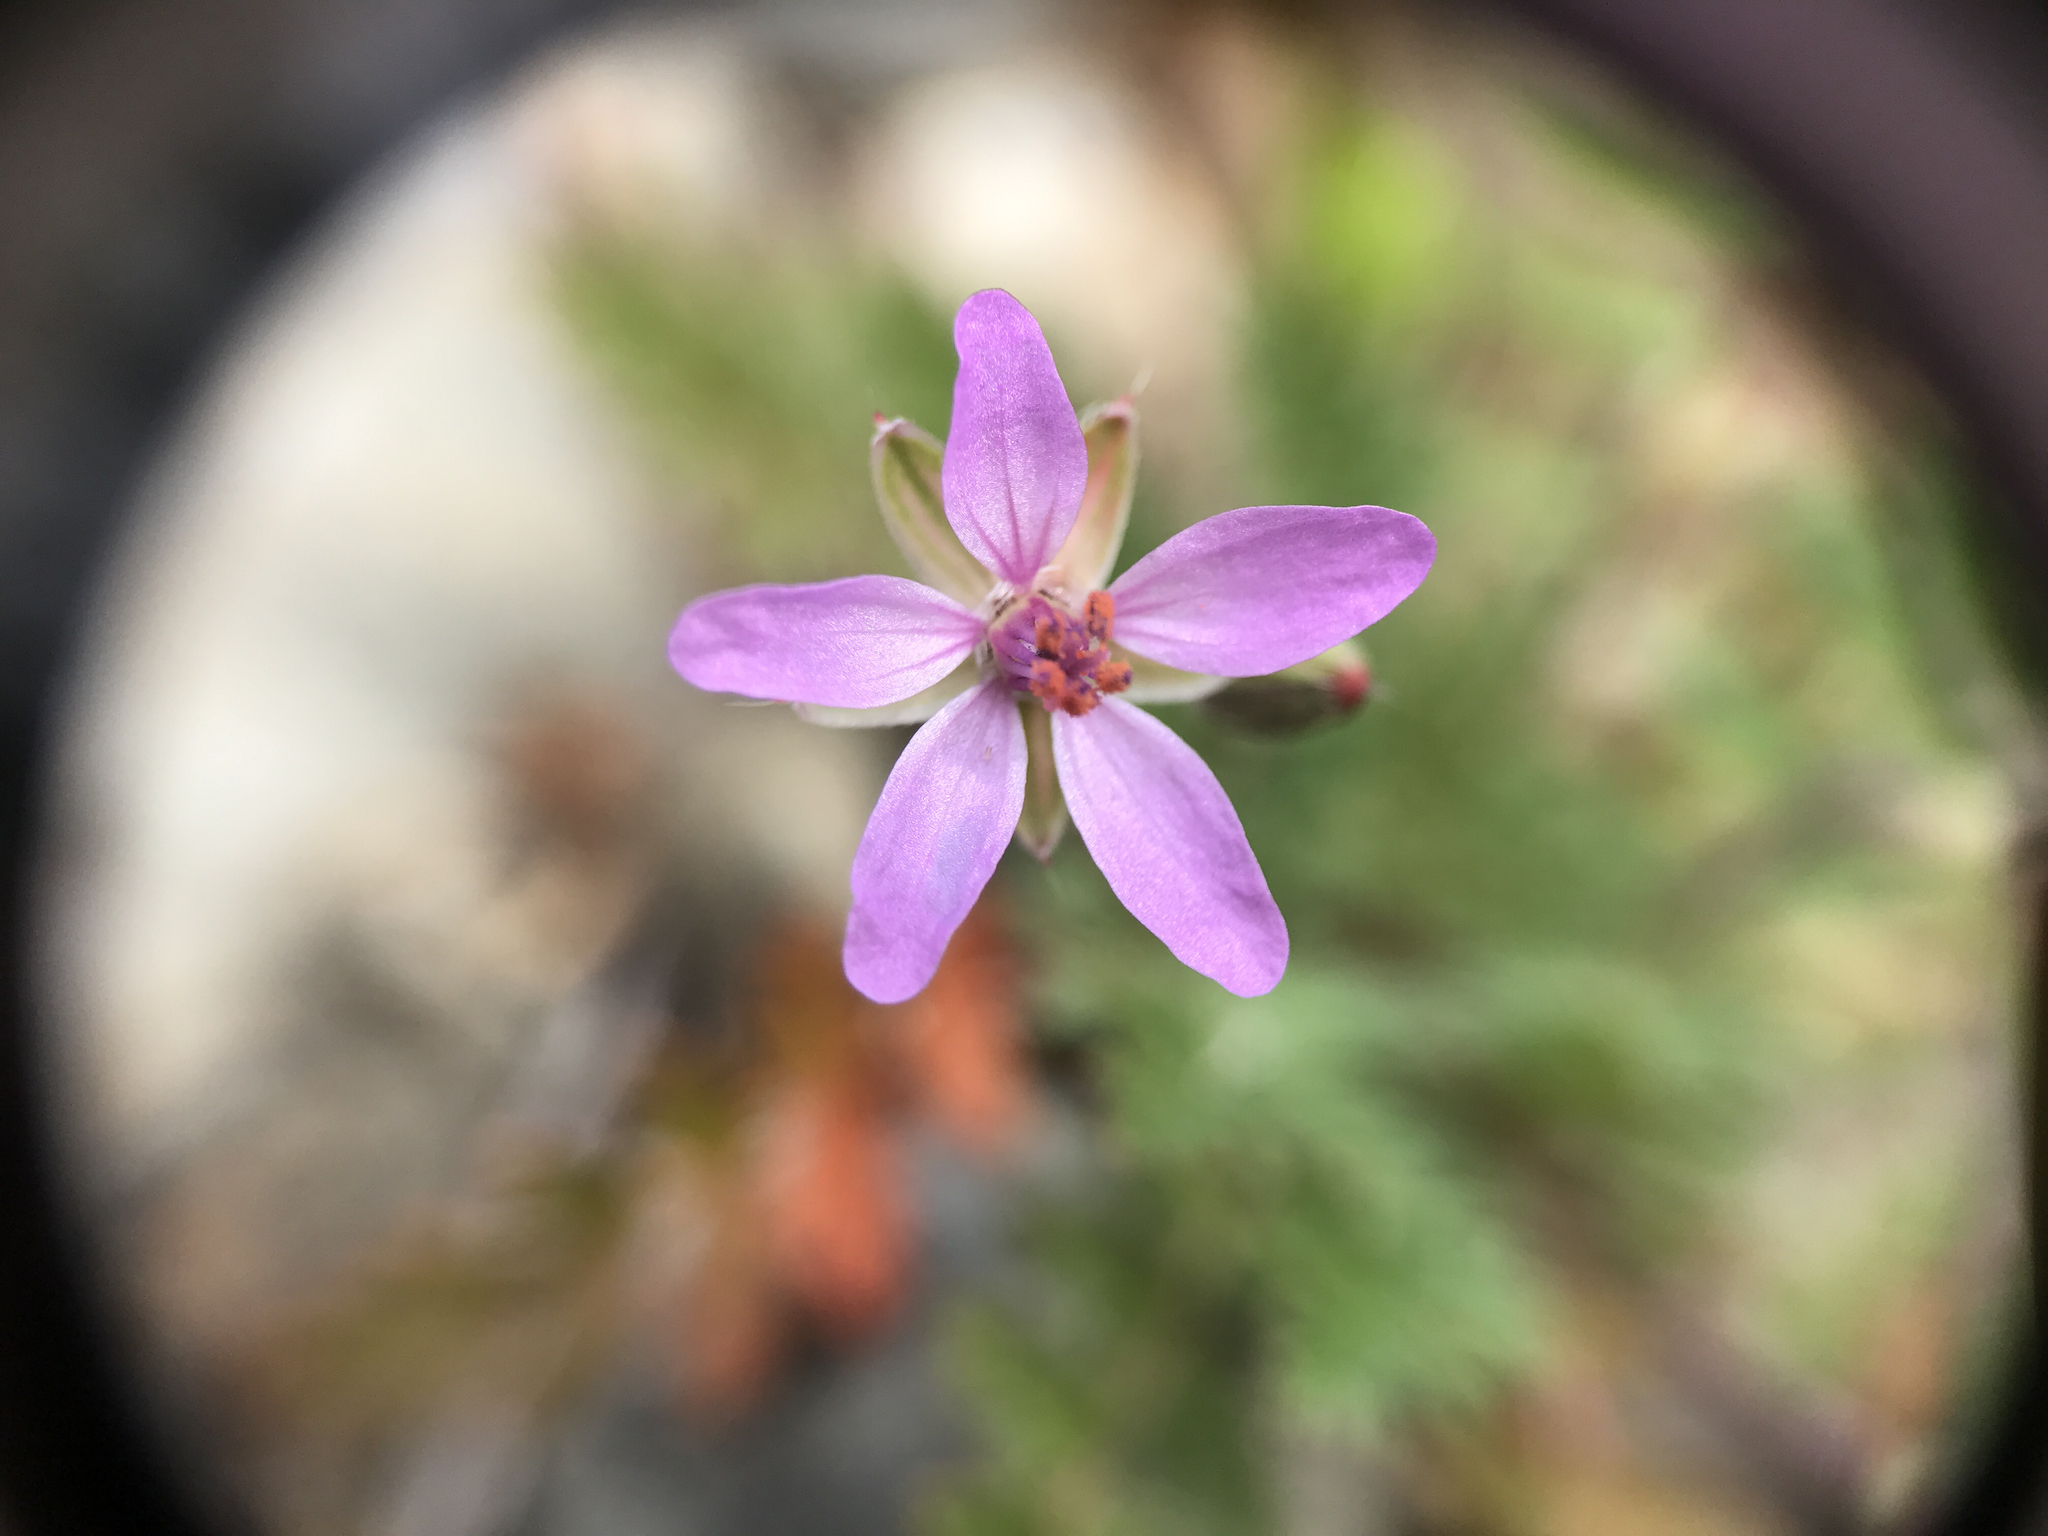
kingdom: Plantae
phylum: Tracheophyta
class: Magnoliopsida
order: Geraniales
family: Geraniaceae
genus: Erodium
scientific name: Erodium cicutarium
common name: Common stork's-bill
